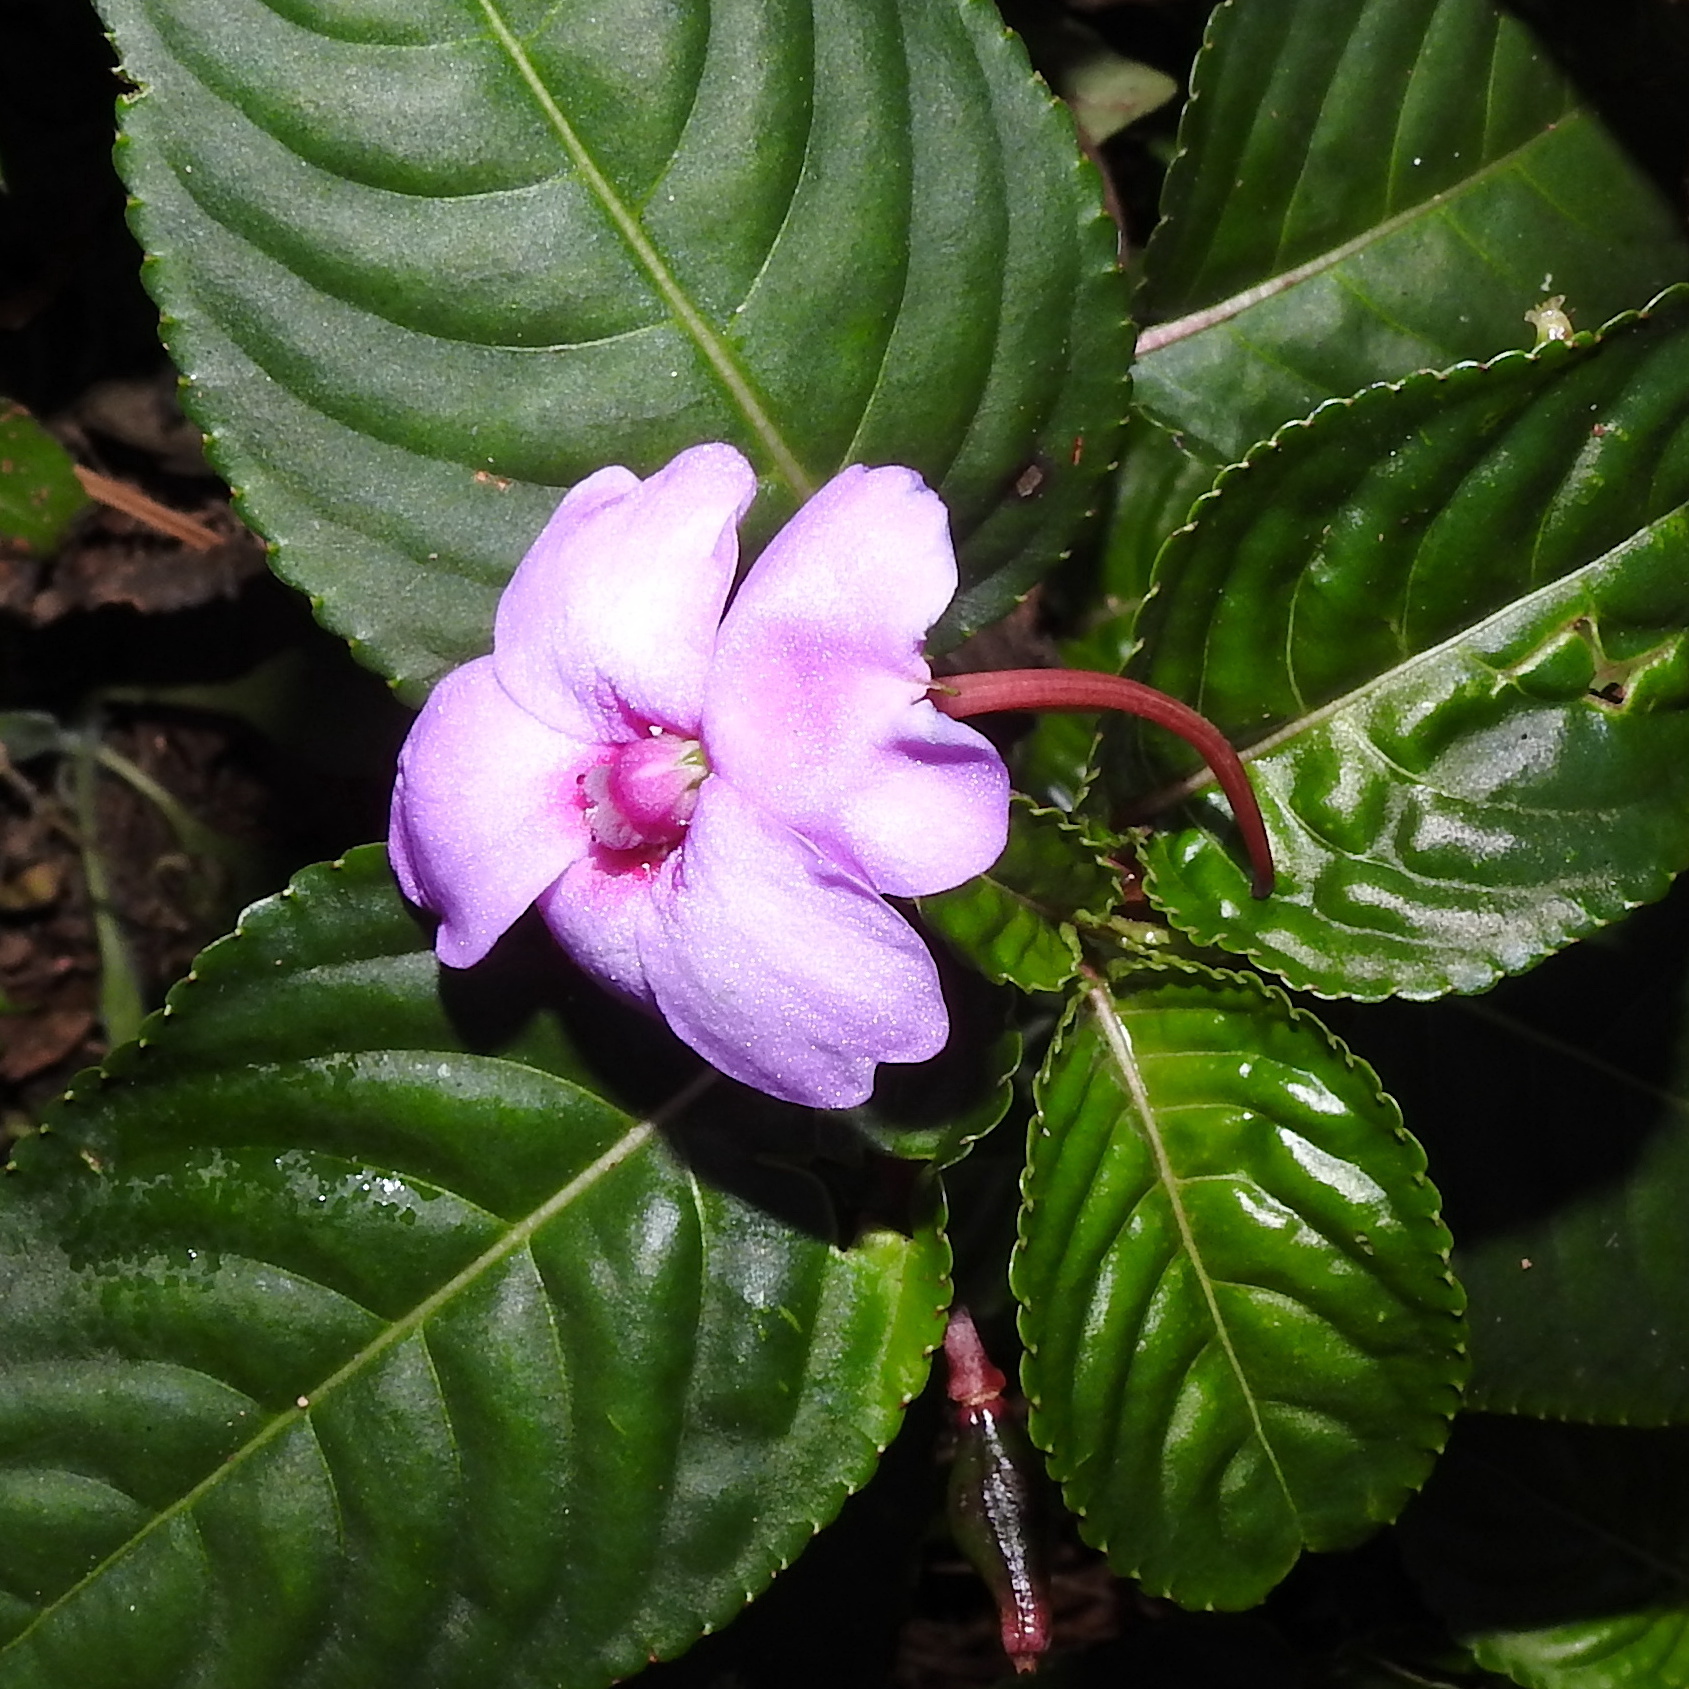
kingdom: Plantae
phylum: Tracheophyta
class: Magnoliopsida
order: Ericales
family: Balsaminaceae
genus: Impatiens
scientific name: Impatiens flaccida
